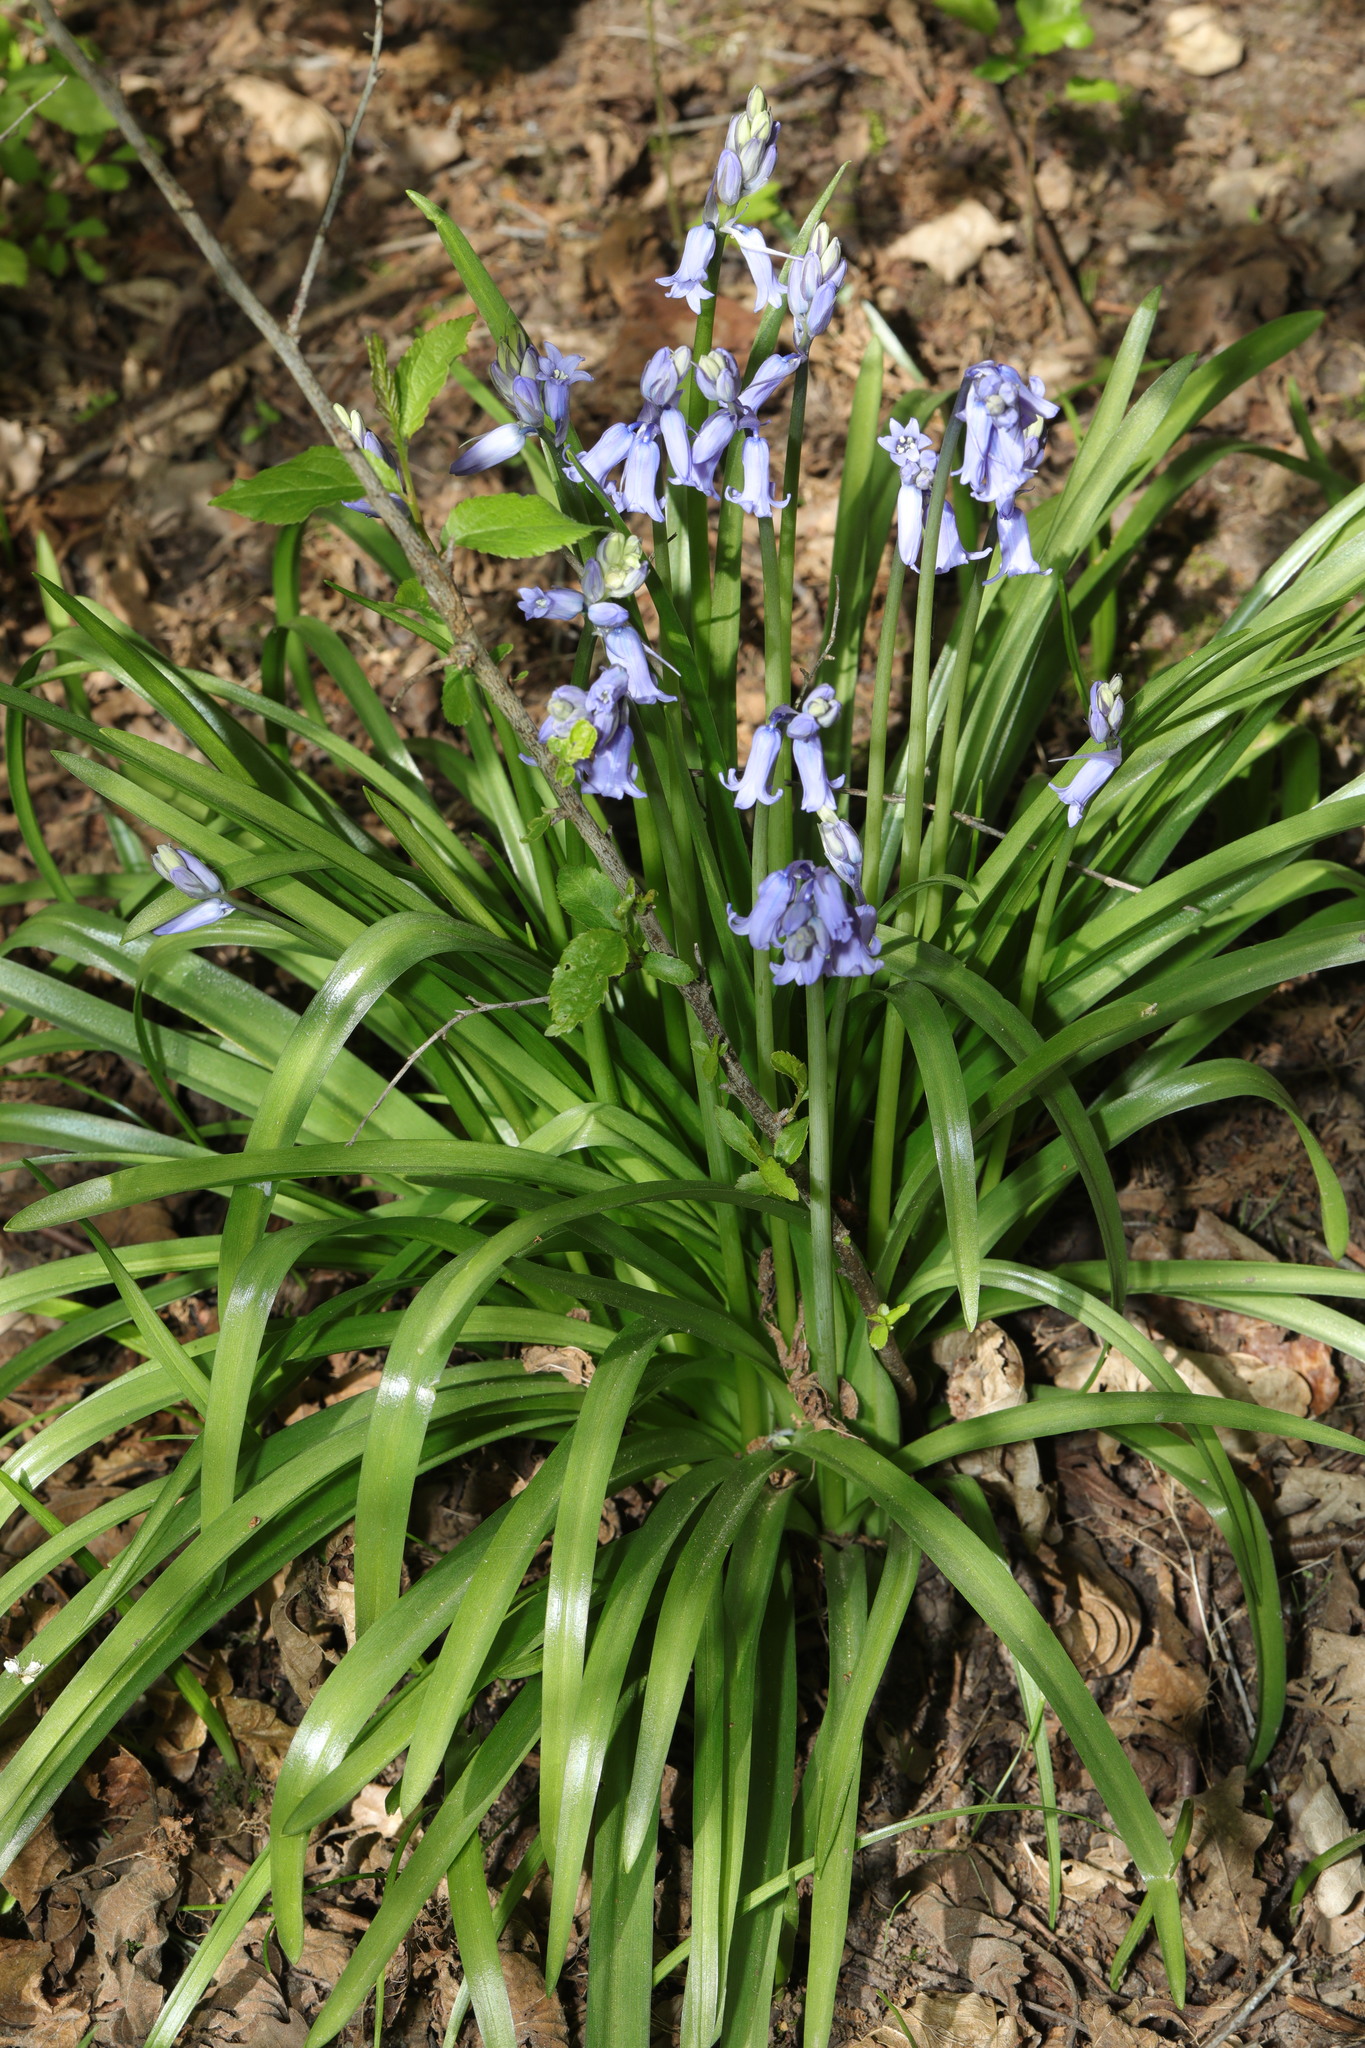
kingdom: Plantae
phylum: Tracheophyta
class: Liliopsida
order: Asparagales
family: Asparagaceae
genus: Hyacinthoides
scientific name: Hyacinthoides hispanica
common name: Spanish bluebell
